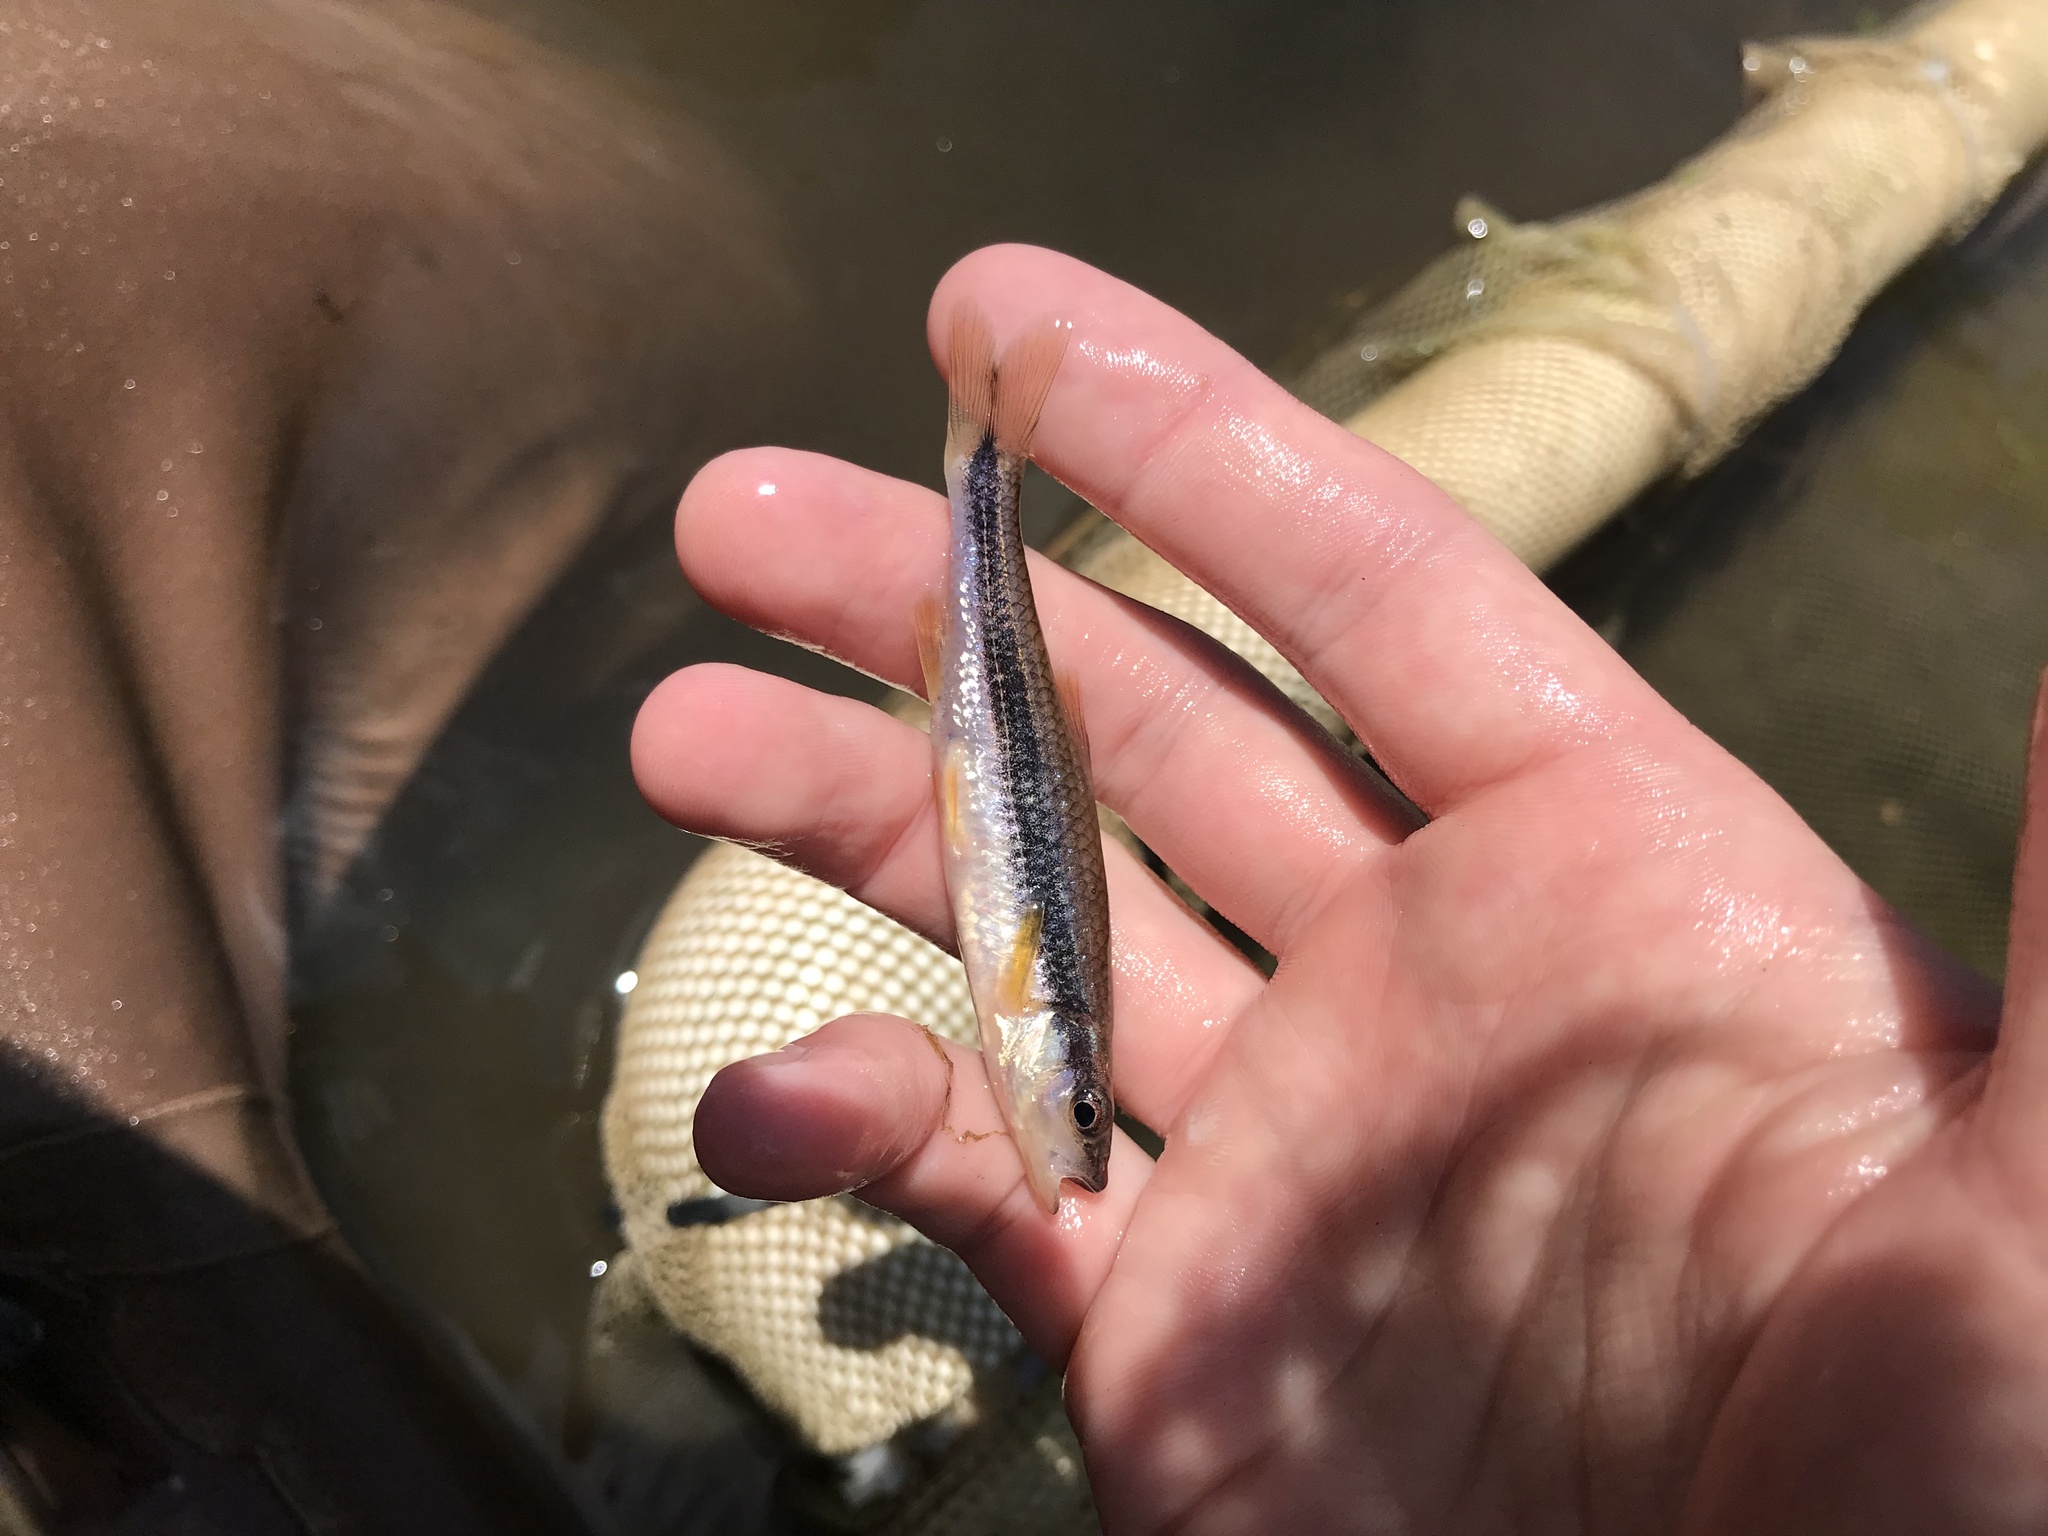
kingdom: Animalia
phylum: Chordata
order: Cypriniformes
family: Cyprinidae
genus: Notropis
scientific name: Notropis lutipinnis
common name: Yellowfin shiner
